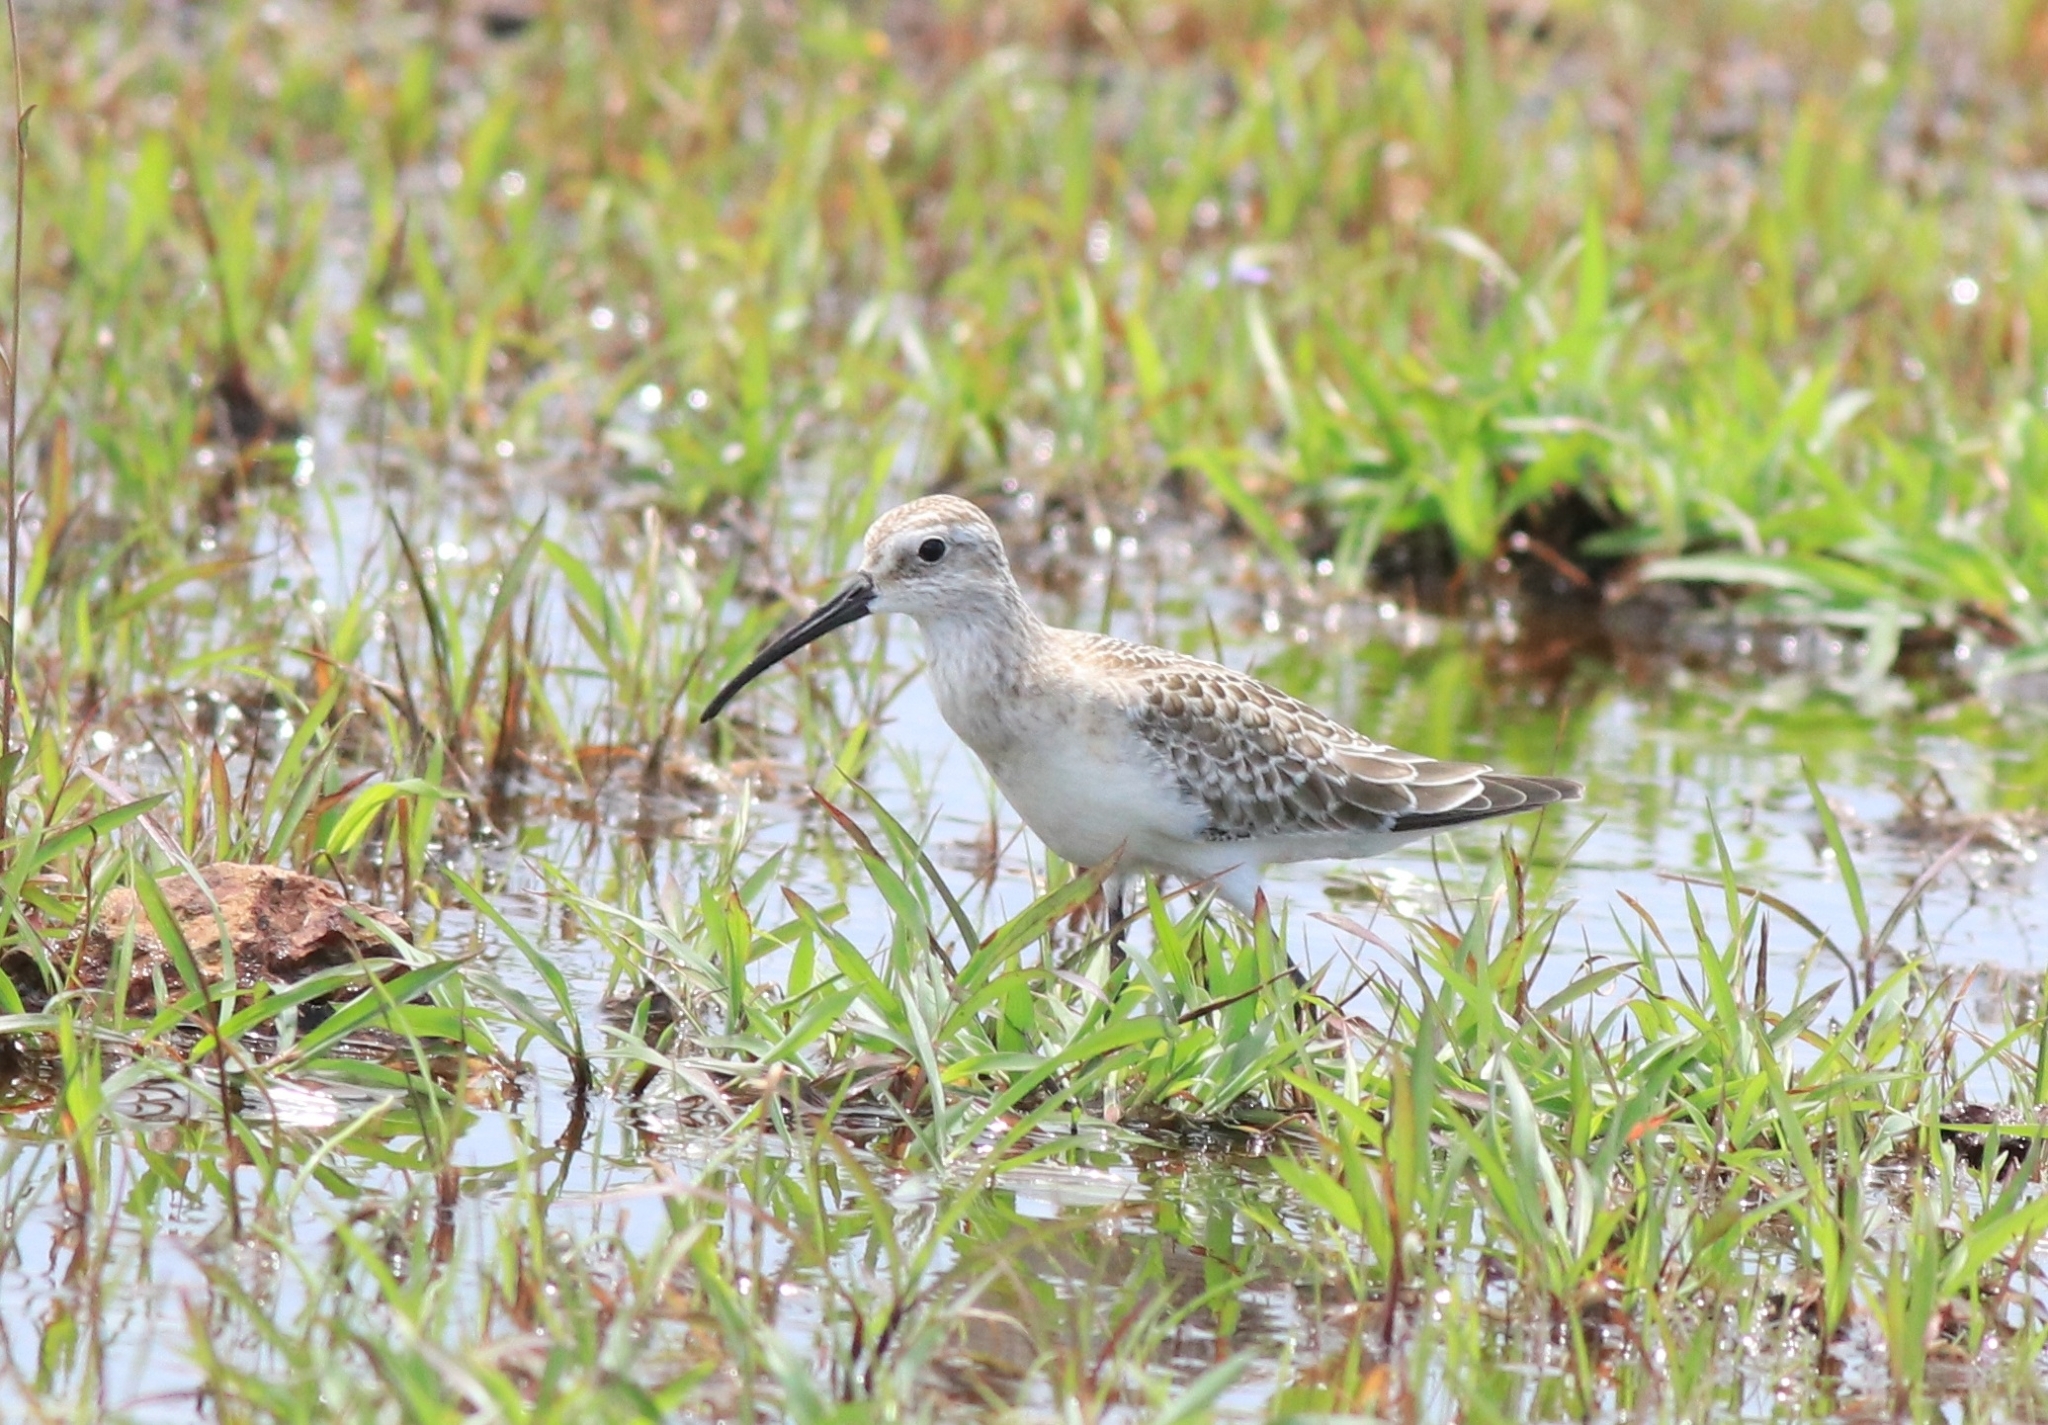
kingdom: Animalia
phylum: Chordata
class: Aves
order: Charadriiformes
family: Scolopacidae
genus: Calidris
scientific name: Calidris ferruginea
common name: Curlew sandpiper
